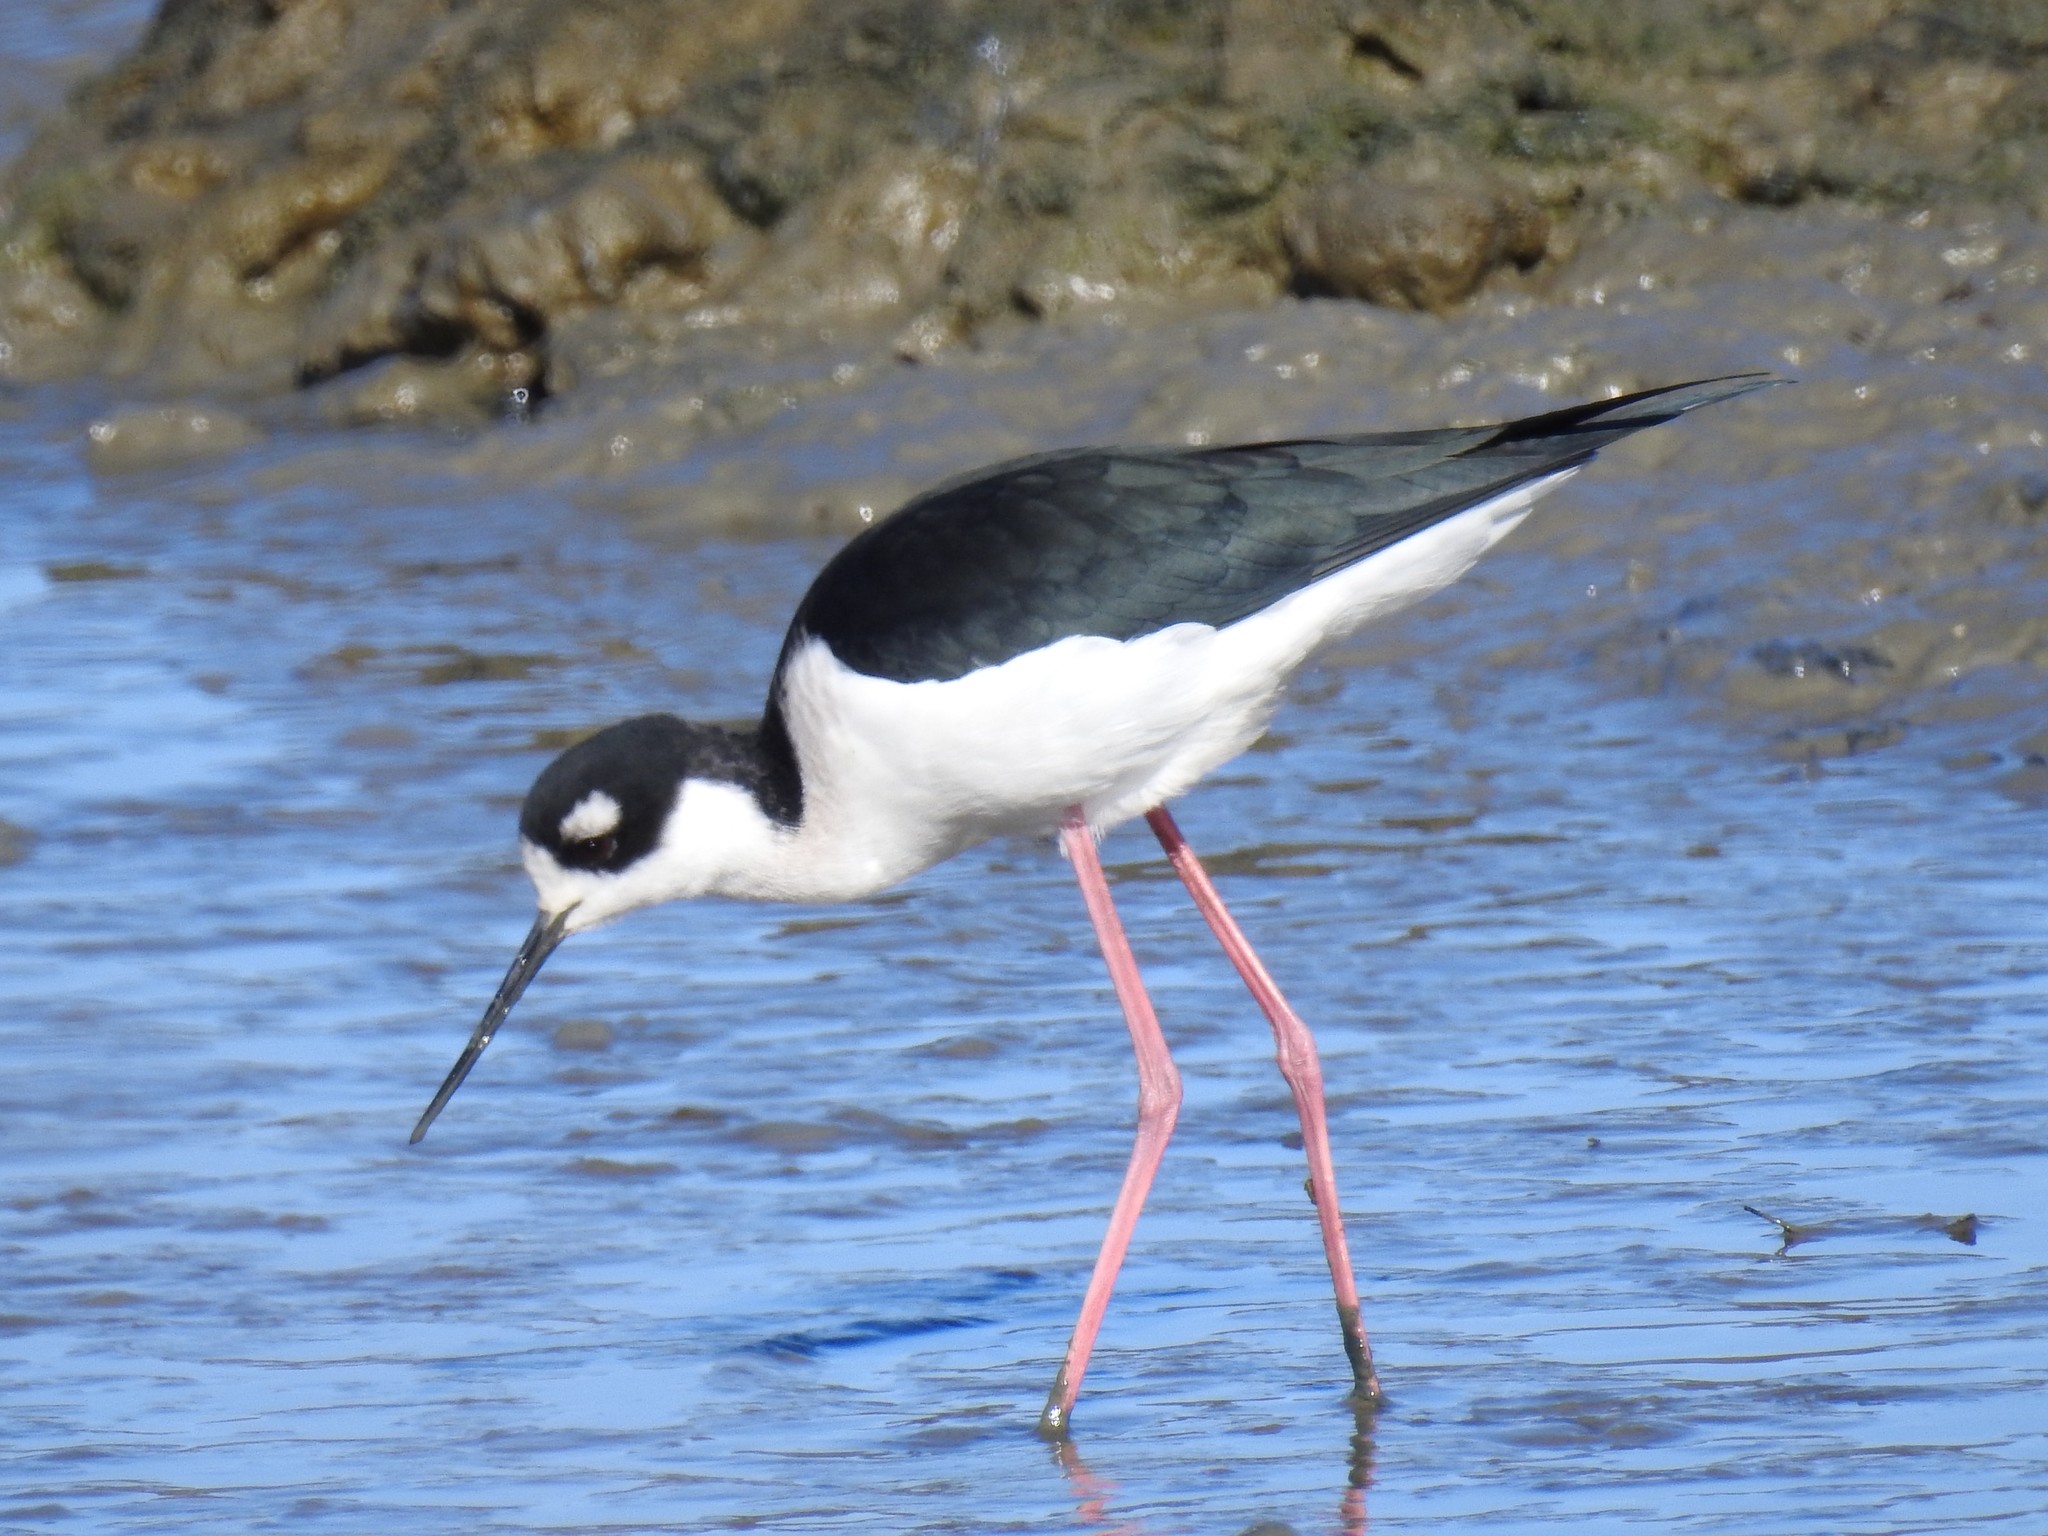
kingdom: Animalia
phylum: Chordata
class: Aves
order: Charadriiformes
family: Recurvirostridae
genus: Himantopus
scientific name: Himantopus mexicanus
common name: Black-necked stilt
